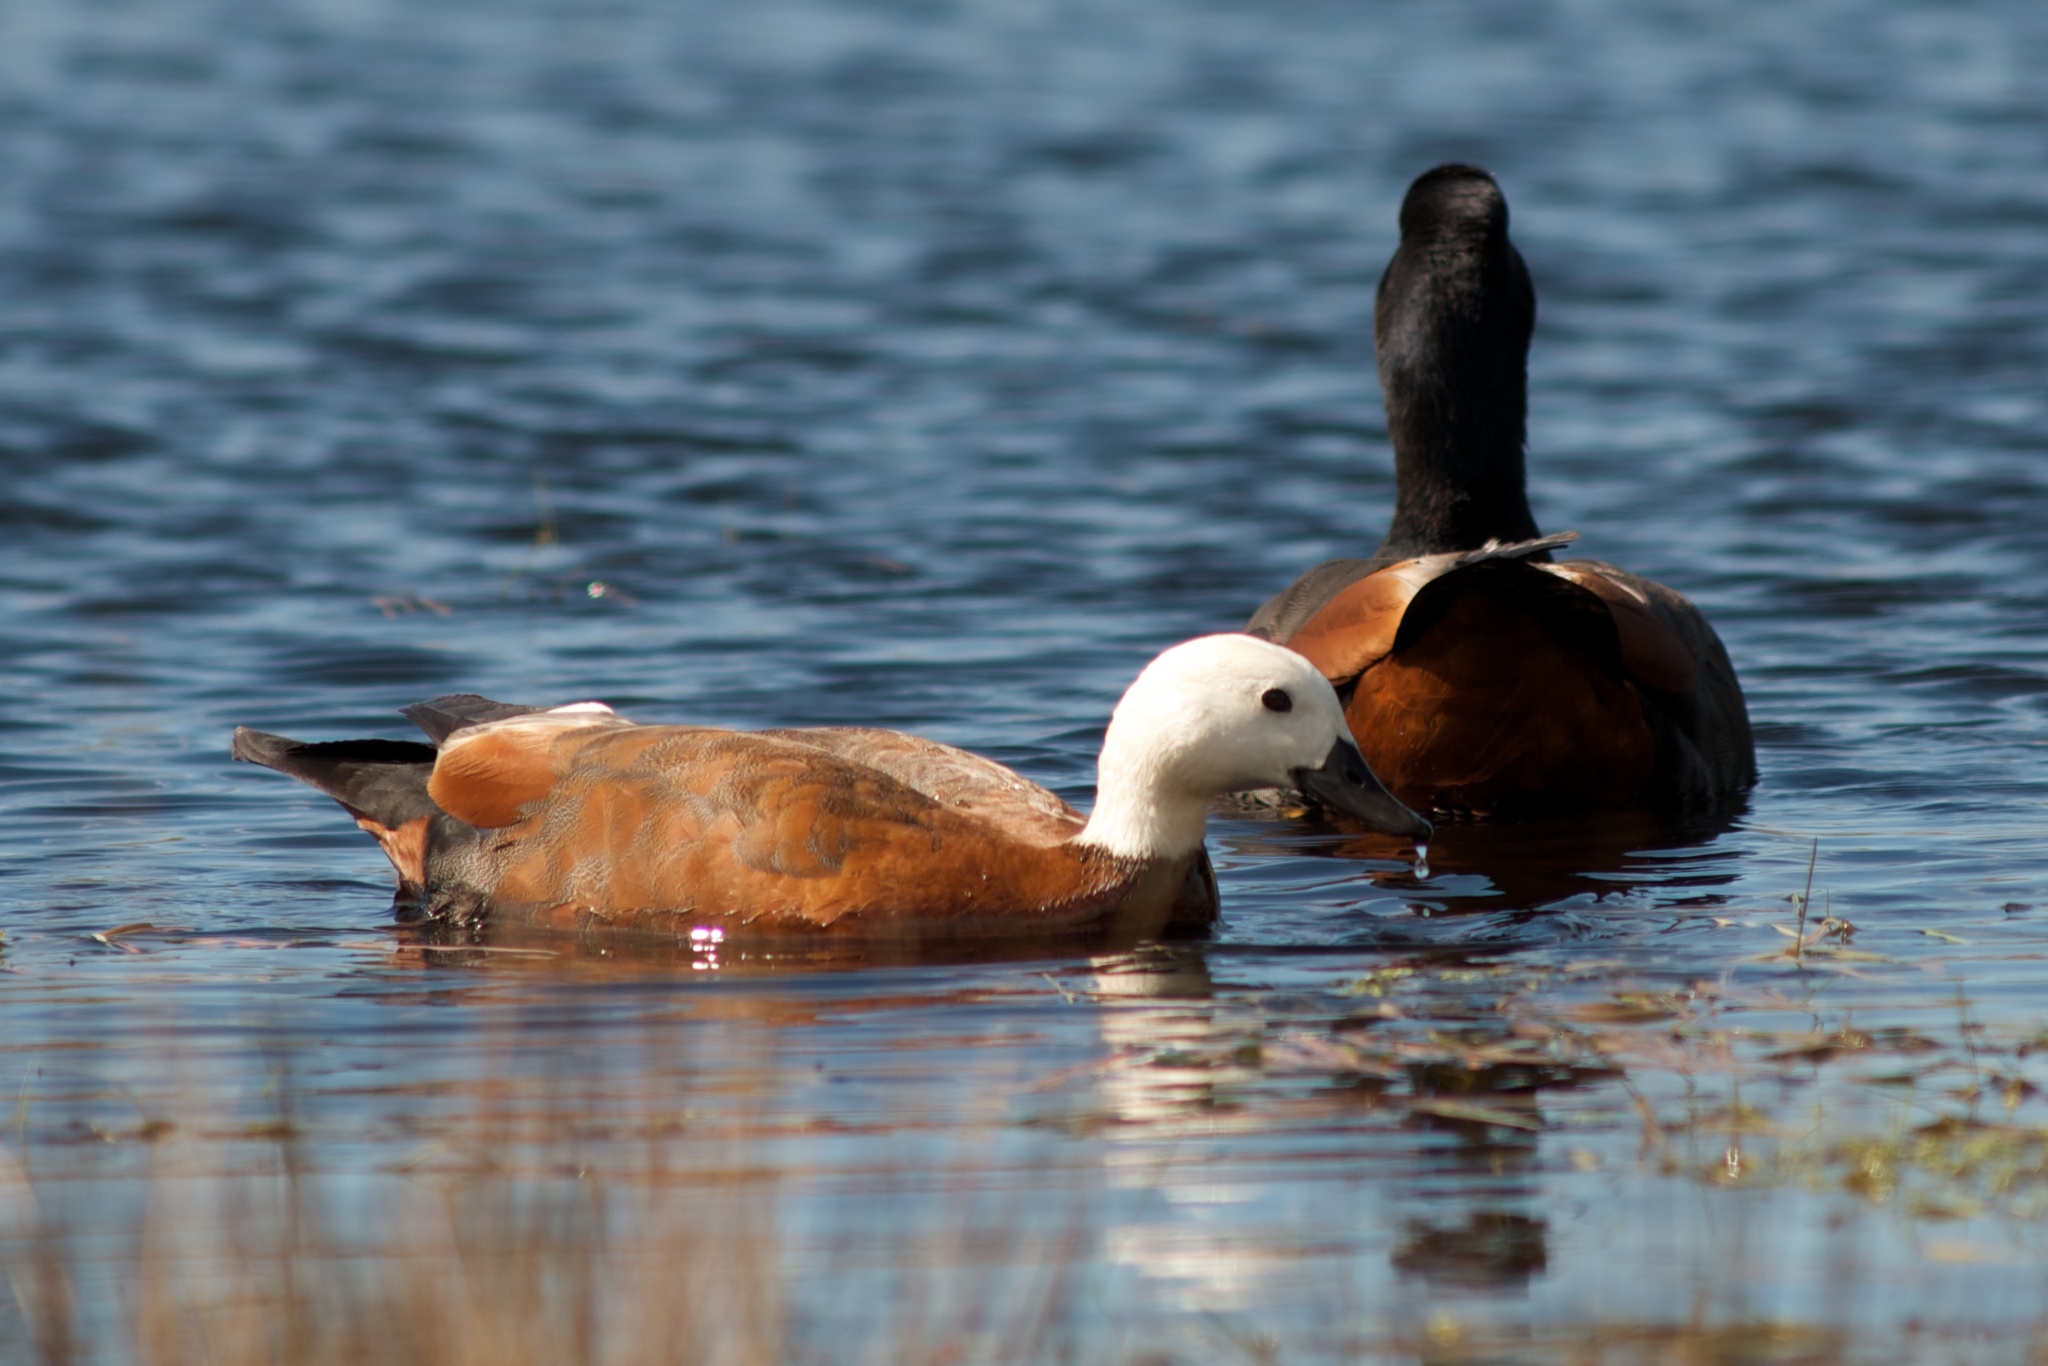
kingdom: Animalia
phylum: Chordata
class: Aves
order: Anseriformes
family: Anatidae
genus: Tadorna
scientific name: Tadorna variegata
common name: Paradise shelduck
